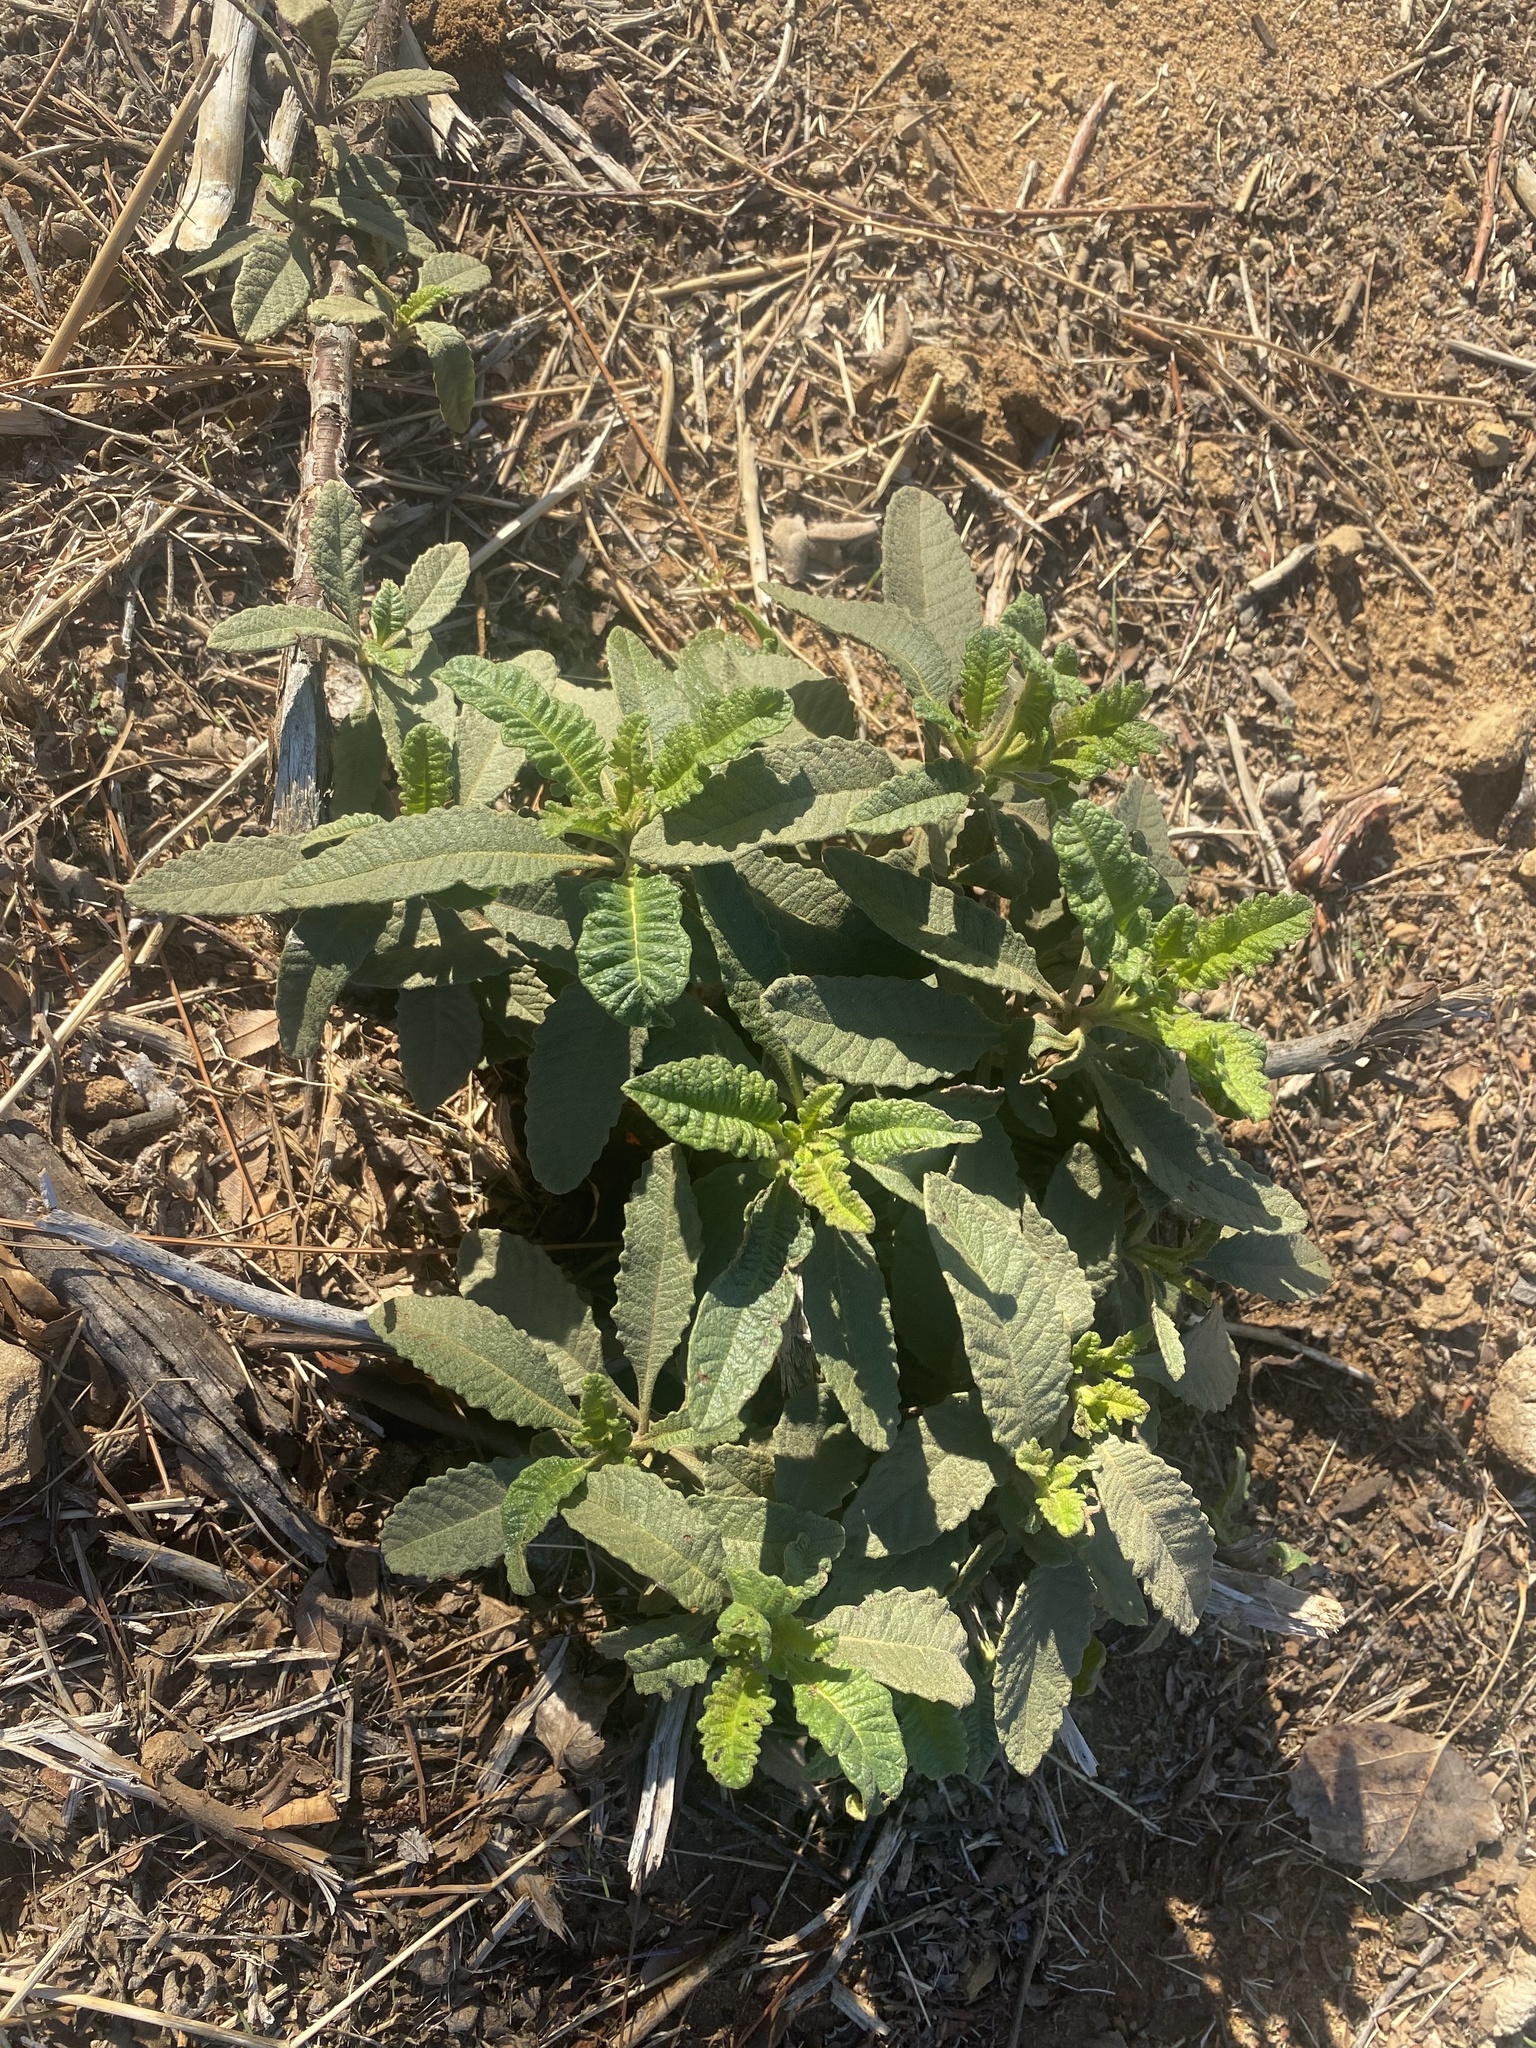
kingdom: Plantae
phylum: Tracheophyta
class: Magnoliopsida
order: Boraginales
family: Namaceae
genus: Eriodictyon
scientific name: Eriodictyon crassifolium
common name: Thick-leaf yerba-santa
